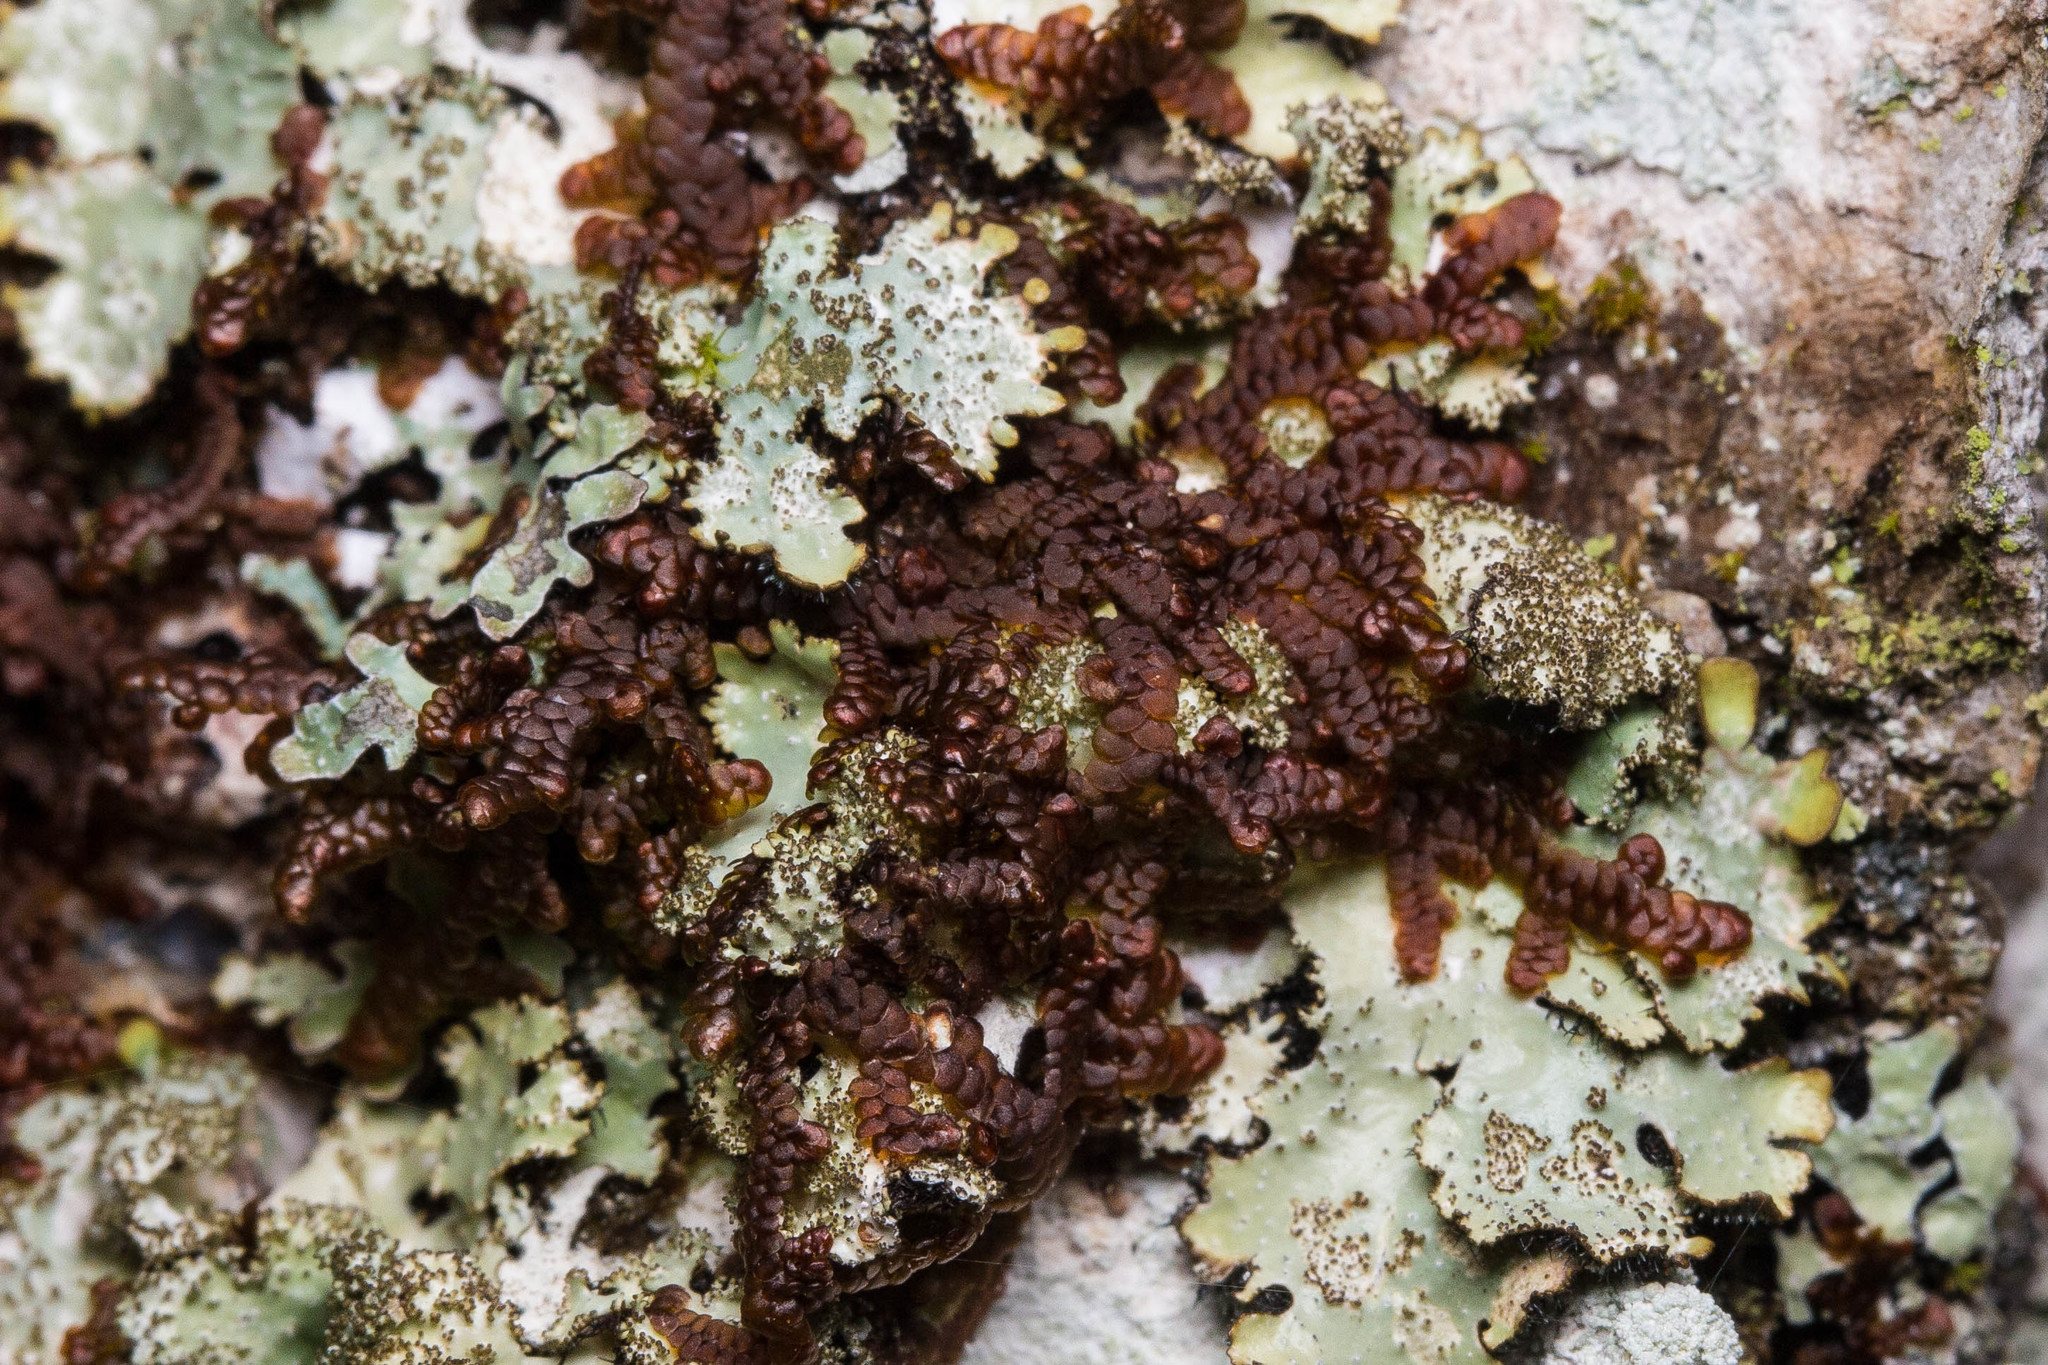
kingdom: Plantae
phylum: Marchantiophyta
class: Jungermanniopsida
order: Porellales
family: Frullaniaceae
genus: Frullania
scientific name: Frullania asagrayana
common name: Asa gray s scalewort
